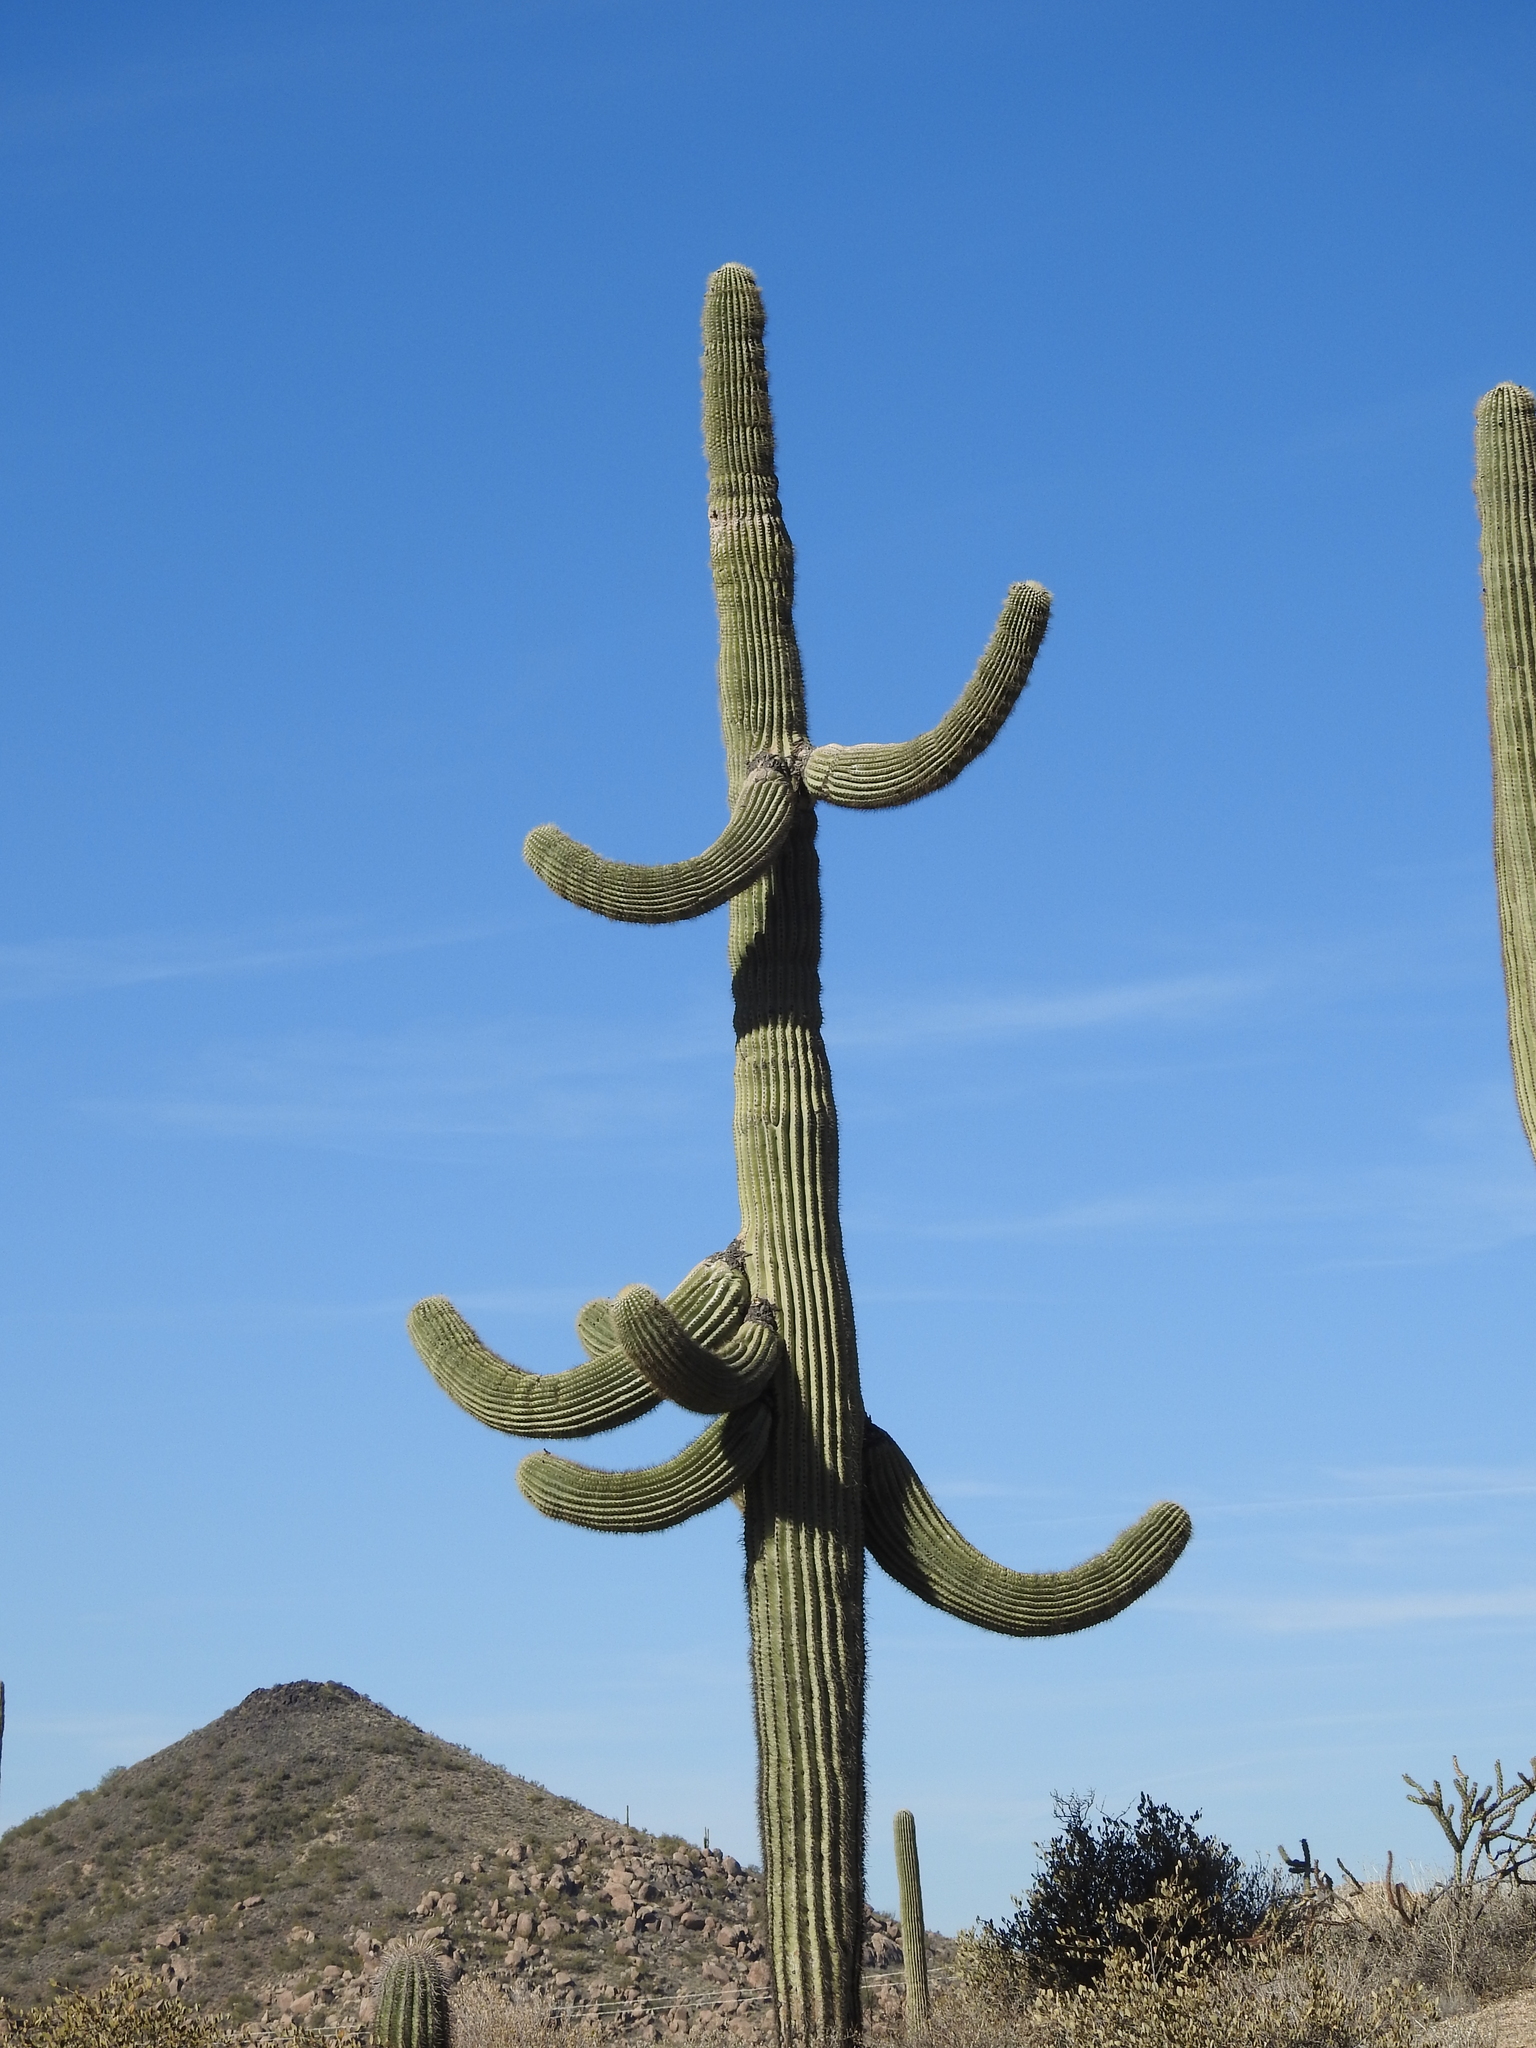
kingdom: Plantae
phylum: Tracheophyta
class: Magnoliopsida
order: Caryophyllales
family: Cactaceae
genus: Carnegiea
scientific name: Carnegiea gigantea
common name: Saguaro
